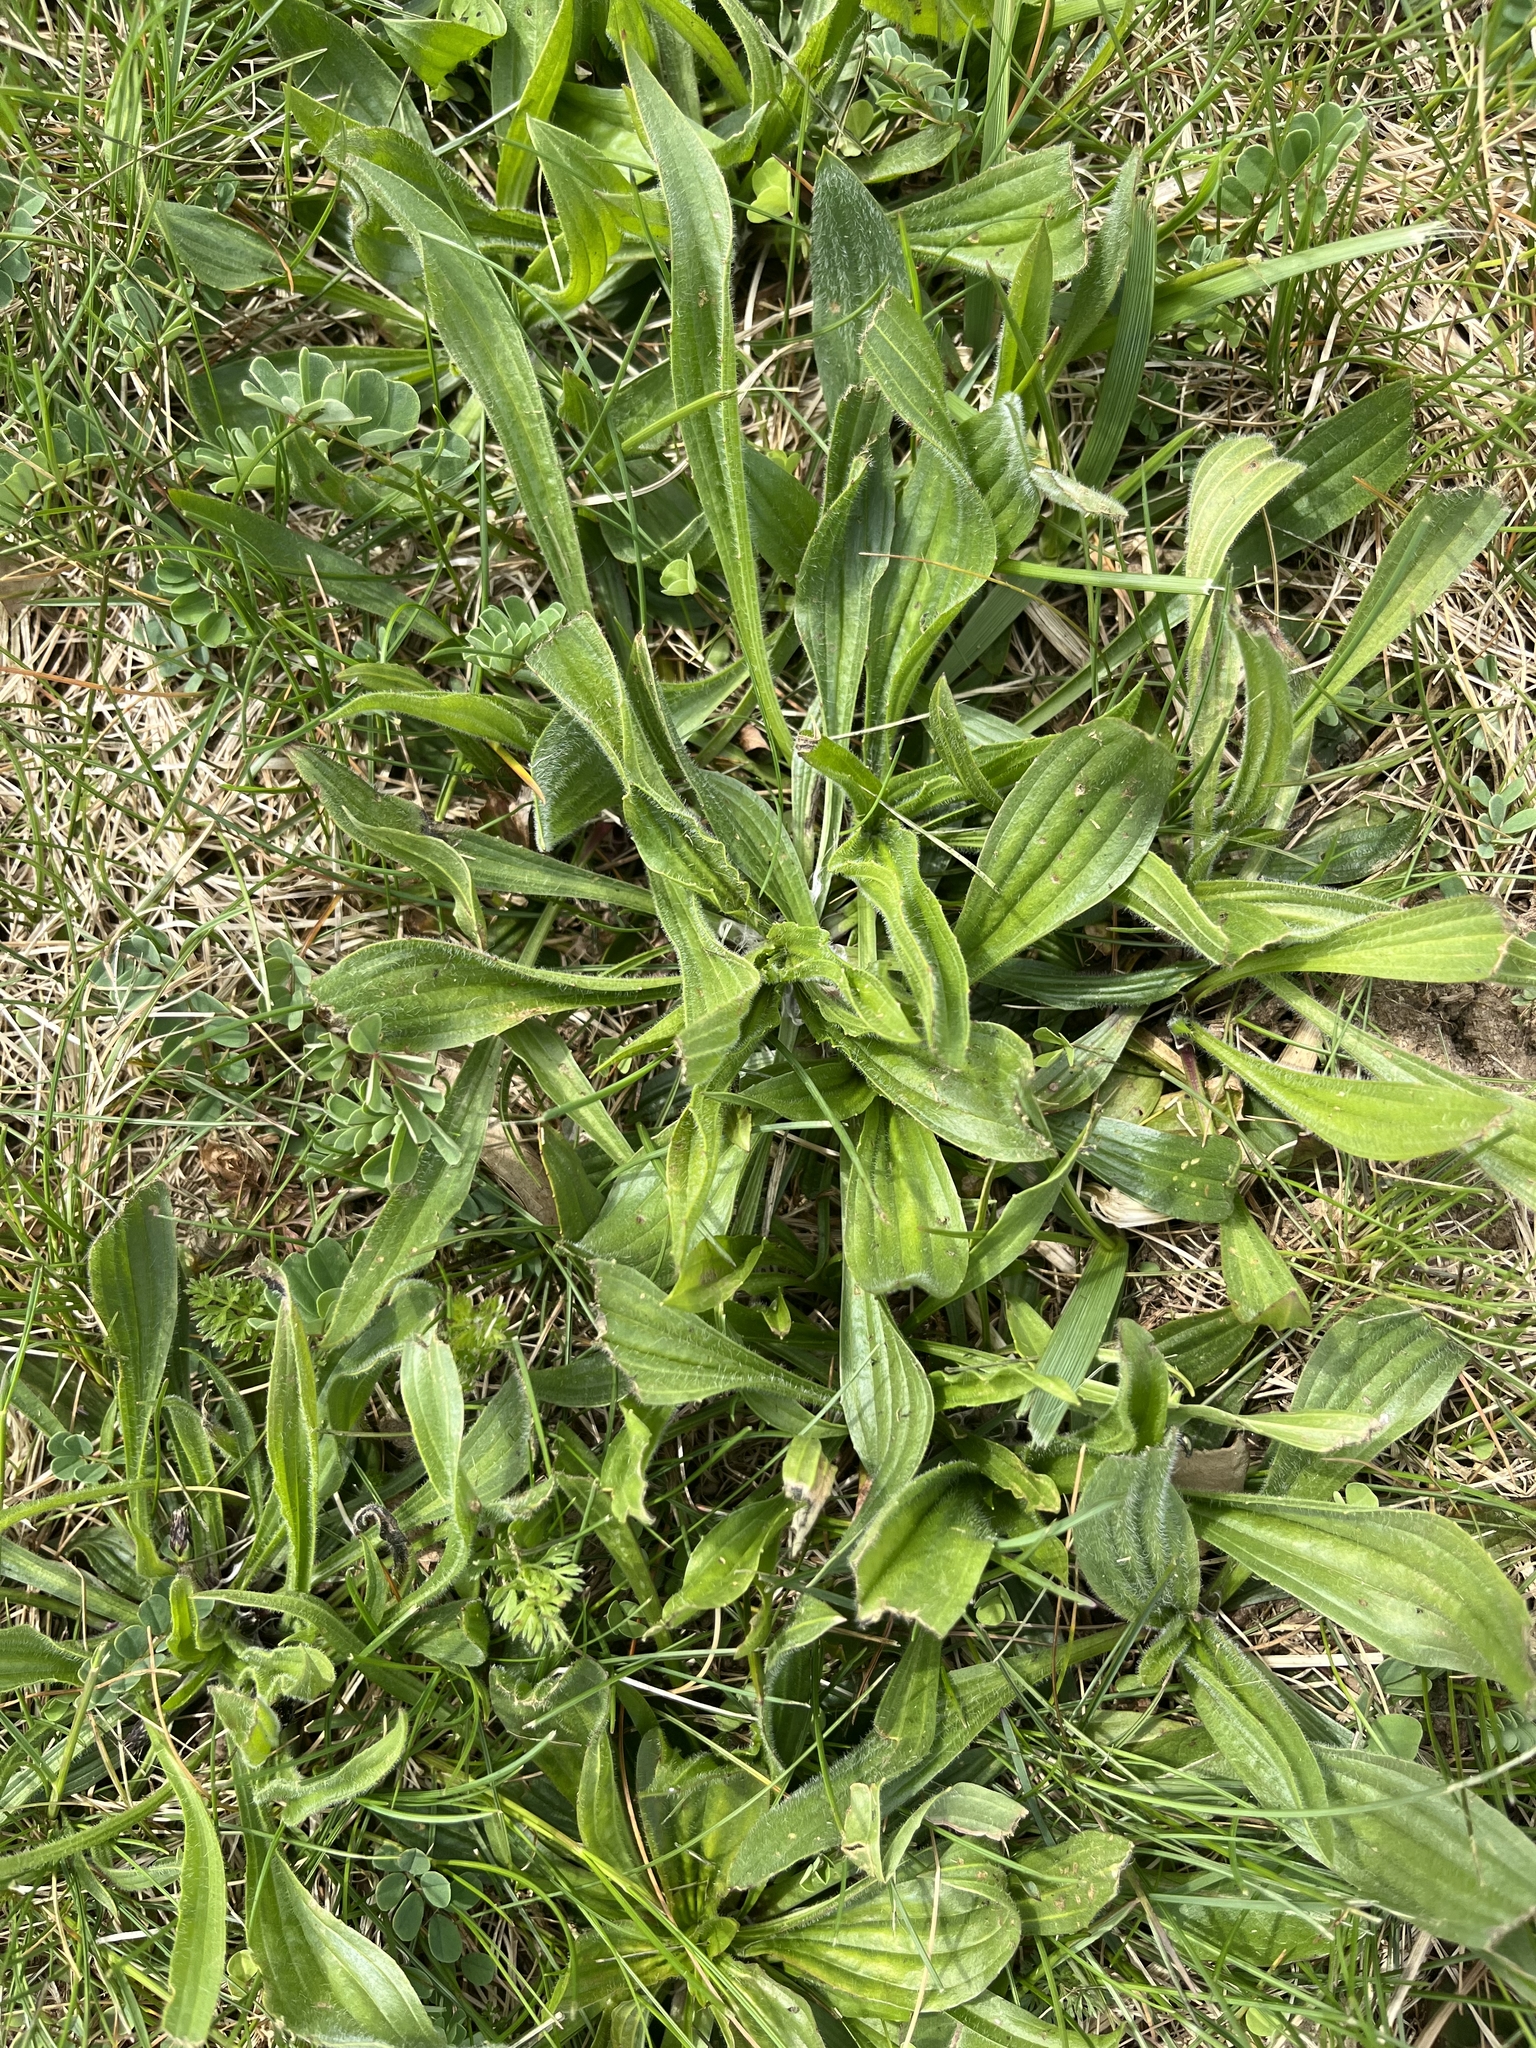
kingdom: Plantae
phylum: Tracheophyta
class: Magnoliopsida
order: Lamiales
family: Plantaginaceae
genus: Plantago
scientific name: Plantago lanceolata
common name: Ribwort plantain
